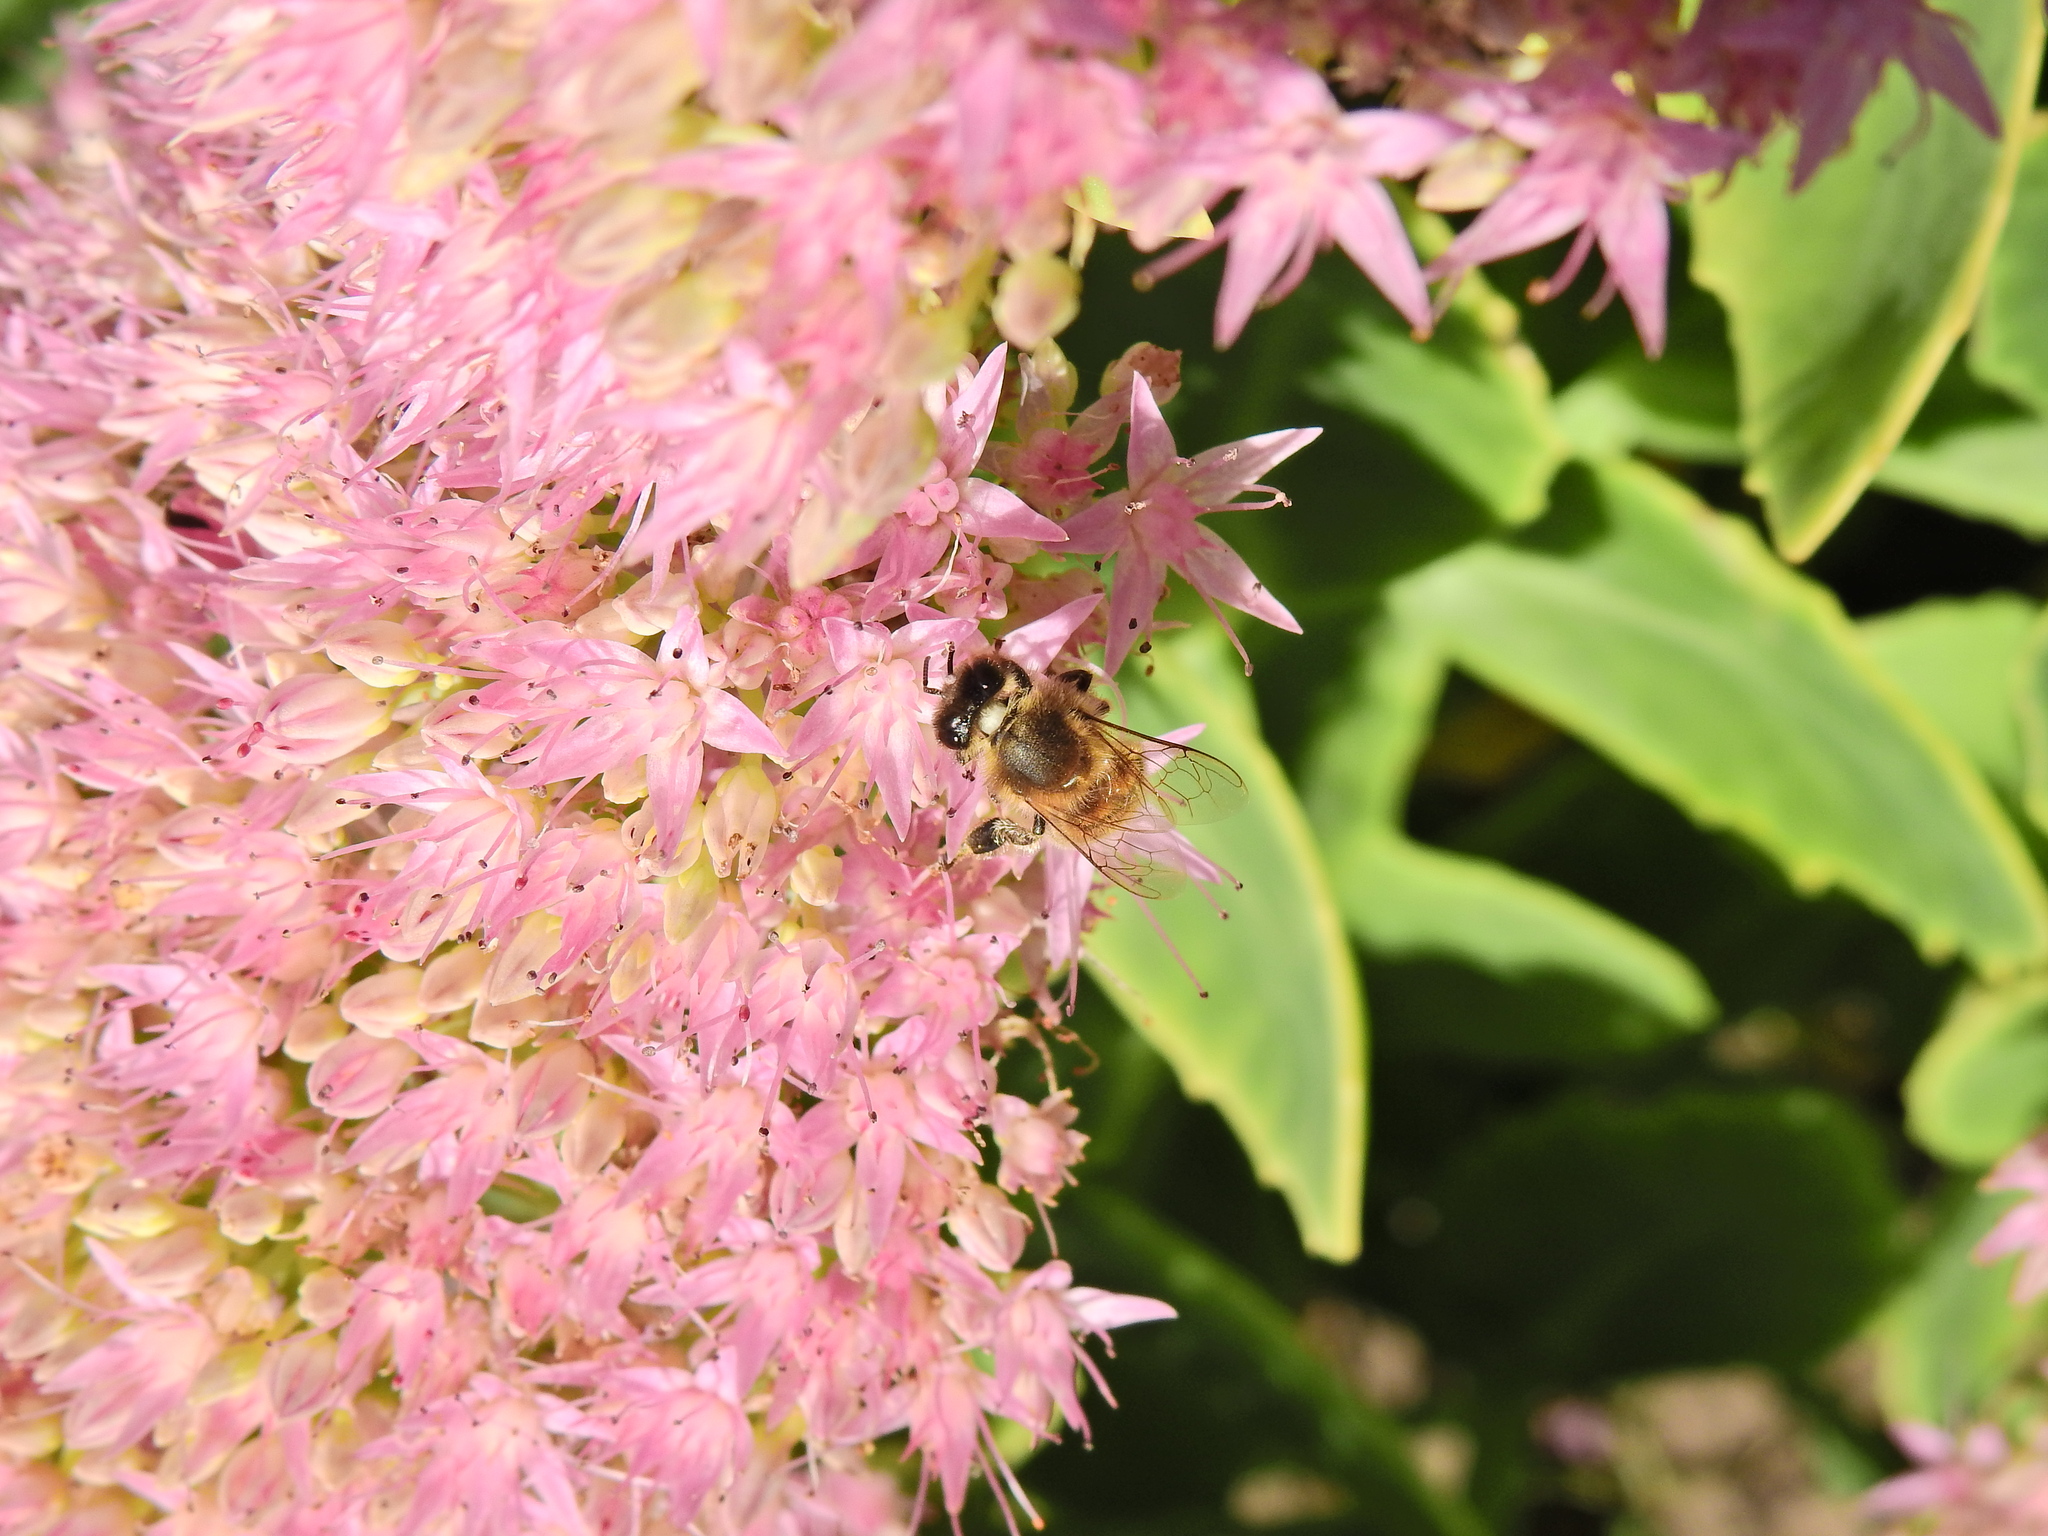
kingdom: Animalia
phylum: Arthropoda
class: Insecta
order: Hymenoptera
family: Apidae
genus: Apis
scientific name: Apis mellifera
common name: Honey bee
